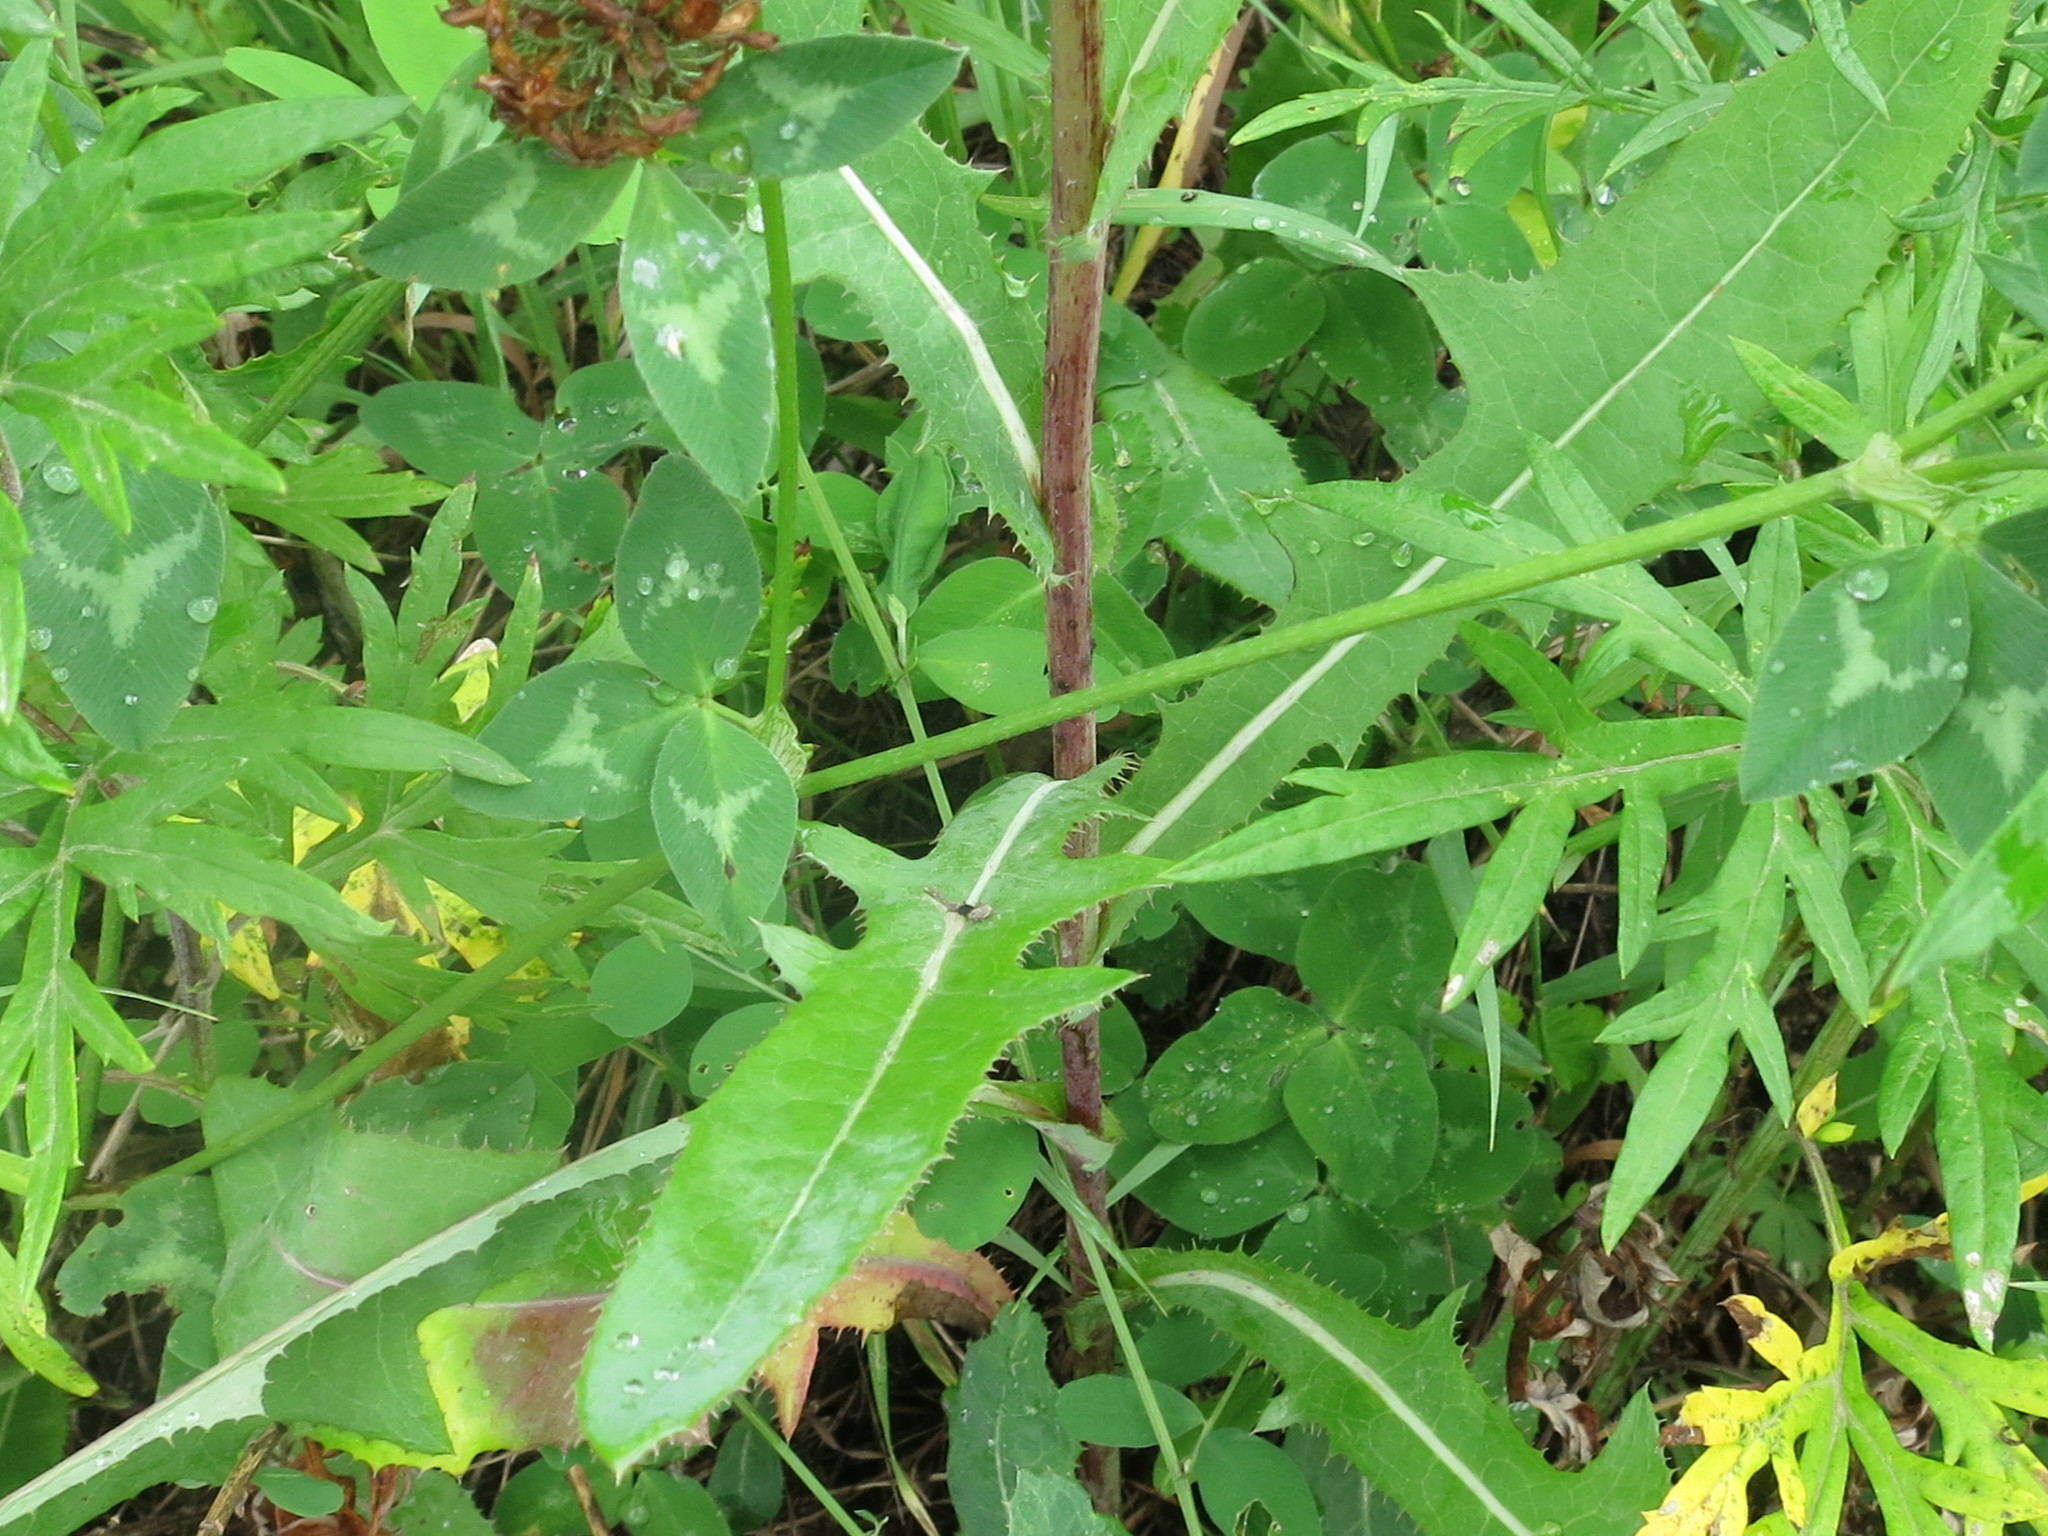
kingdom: Plantae
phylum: Tracheophyta
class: Magnoliopsida
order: Asterales
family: Asteraceae
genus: Sonchus
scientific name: Sonchus arvensis
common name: Perennial sow-thistle
